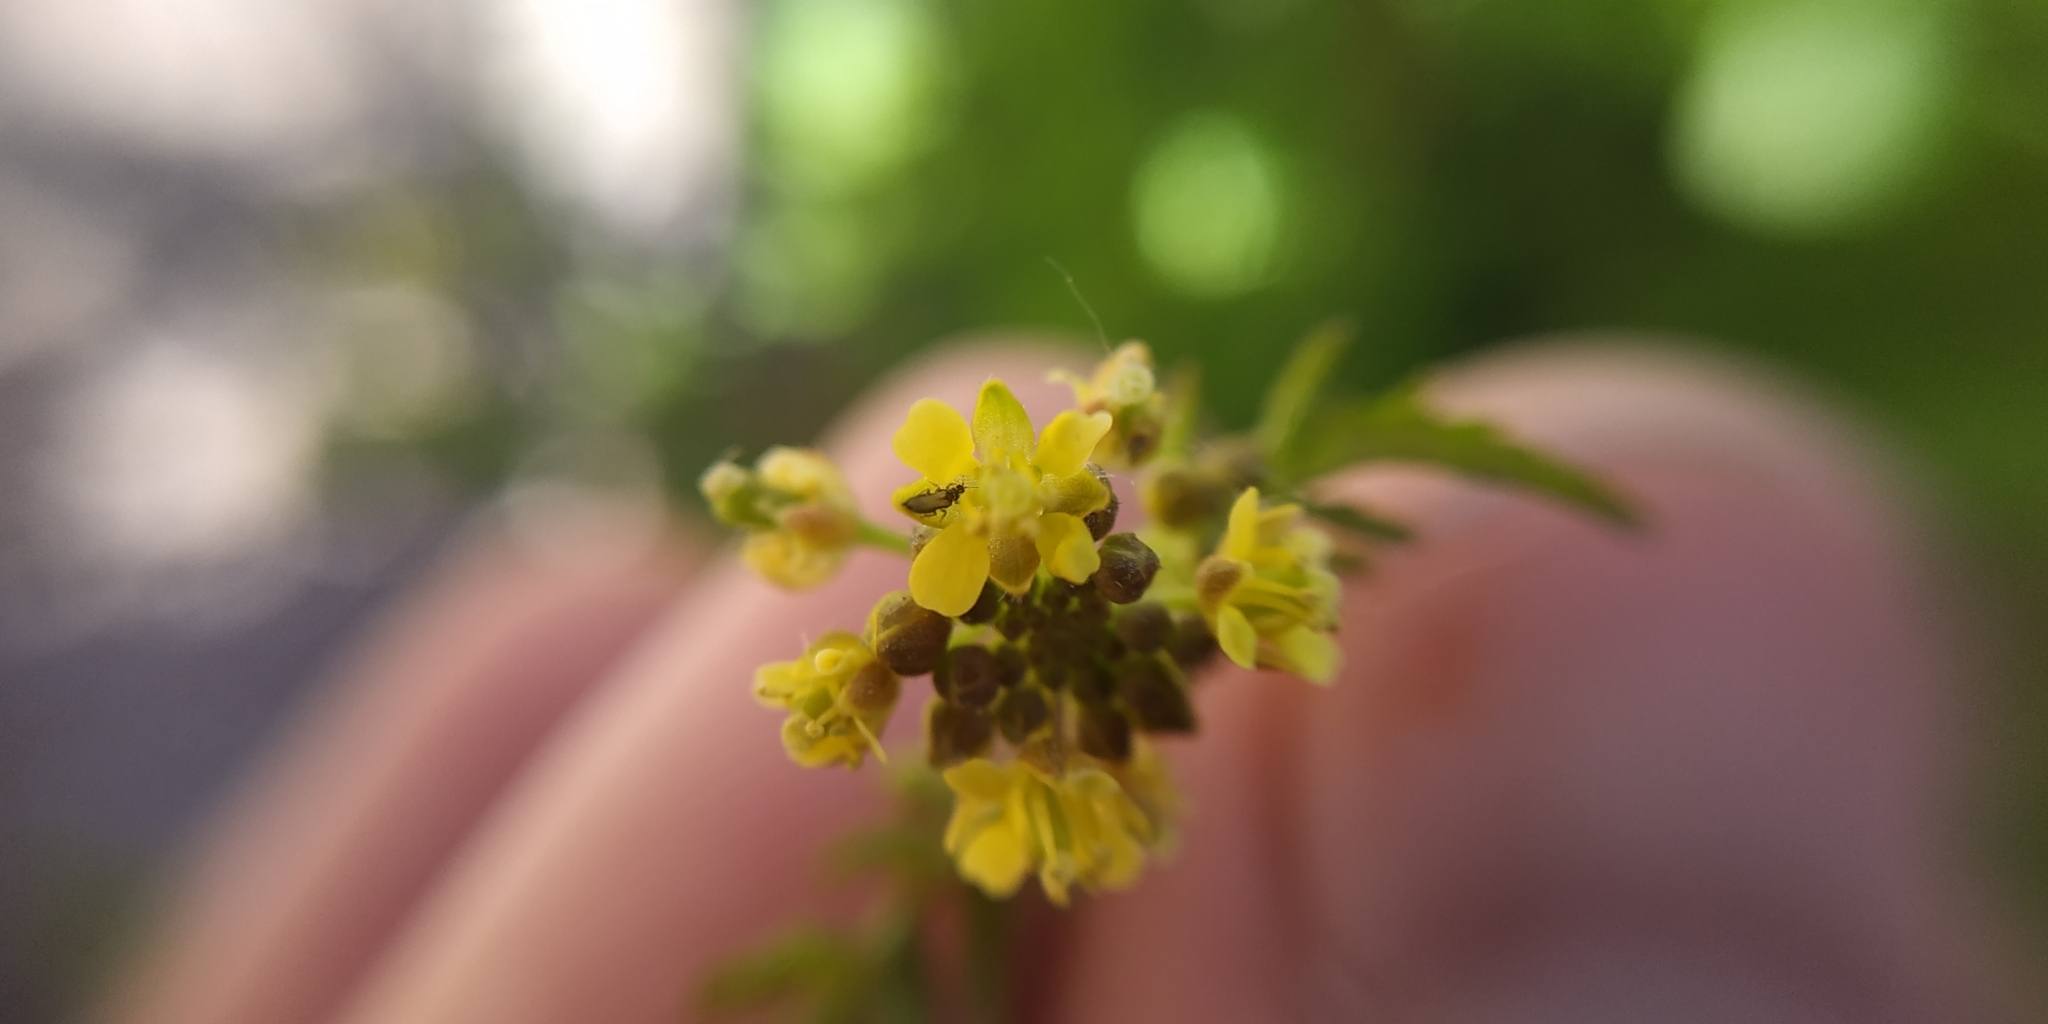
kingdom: Plantae
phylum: Tracheophyta
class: Magnoliopsida
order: Brassicales
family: Brassicaceae
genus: Rorippa
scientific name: Rorippa palustris
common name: Marsh yellow-cress
